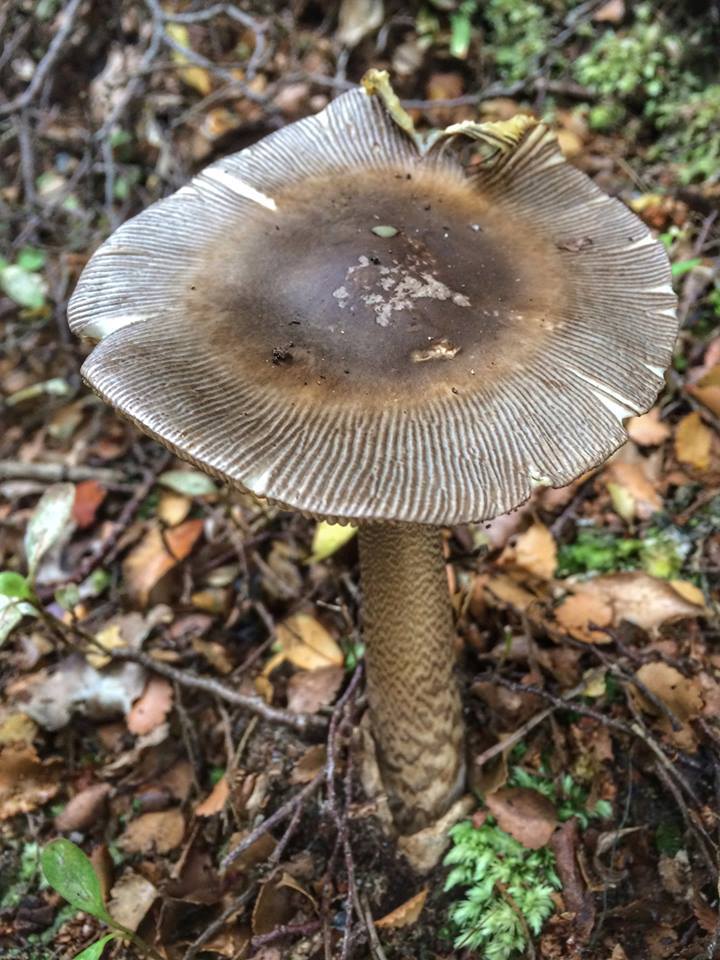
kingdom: Fungi
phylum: Basidiomycota
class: Agaricomycetes
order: Agaricales
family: Amanitaceae
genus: Amanita
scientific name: Amanita pekeoides
